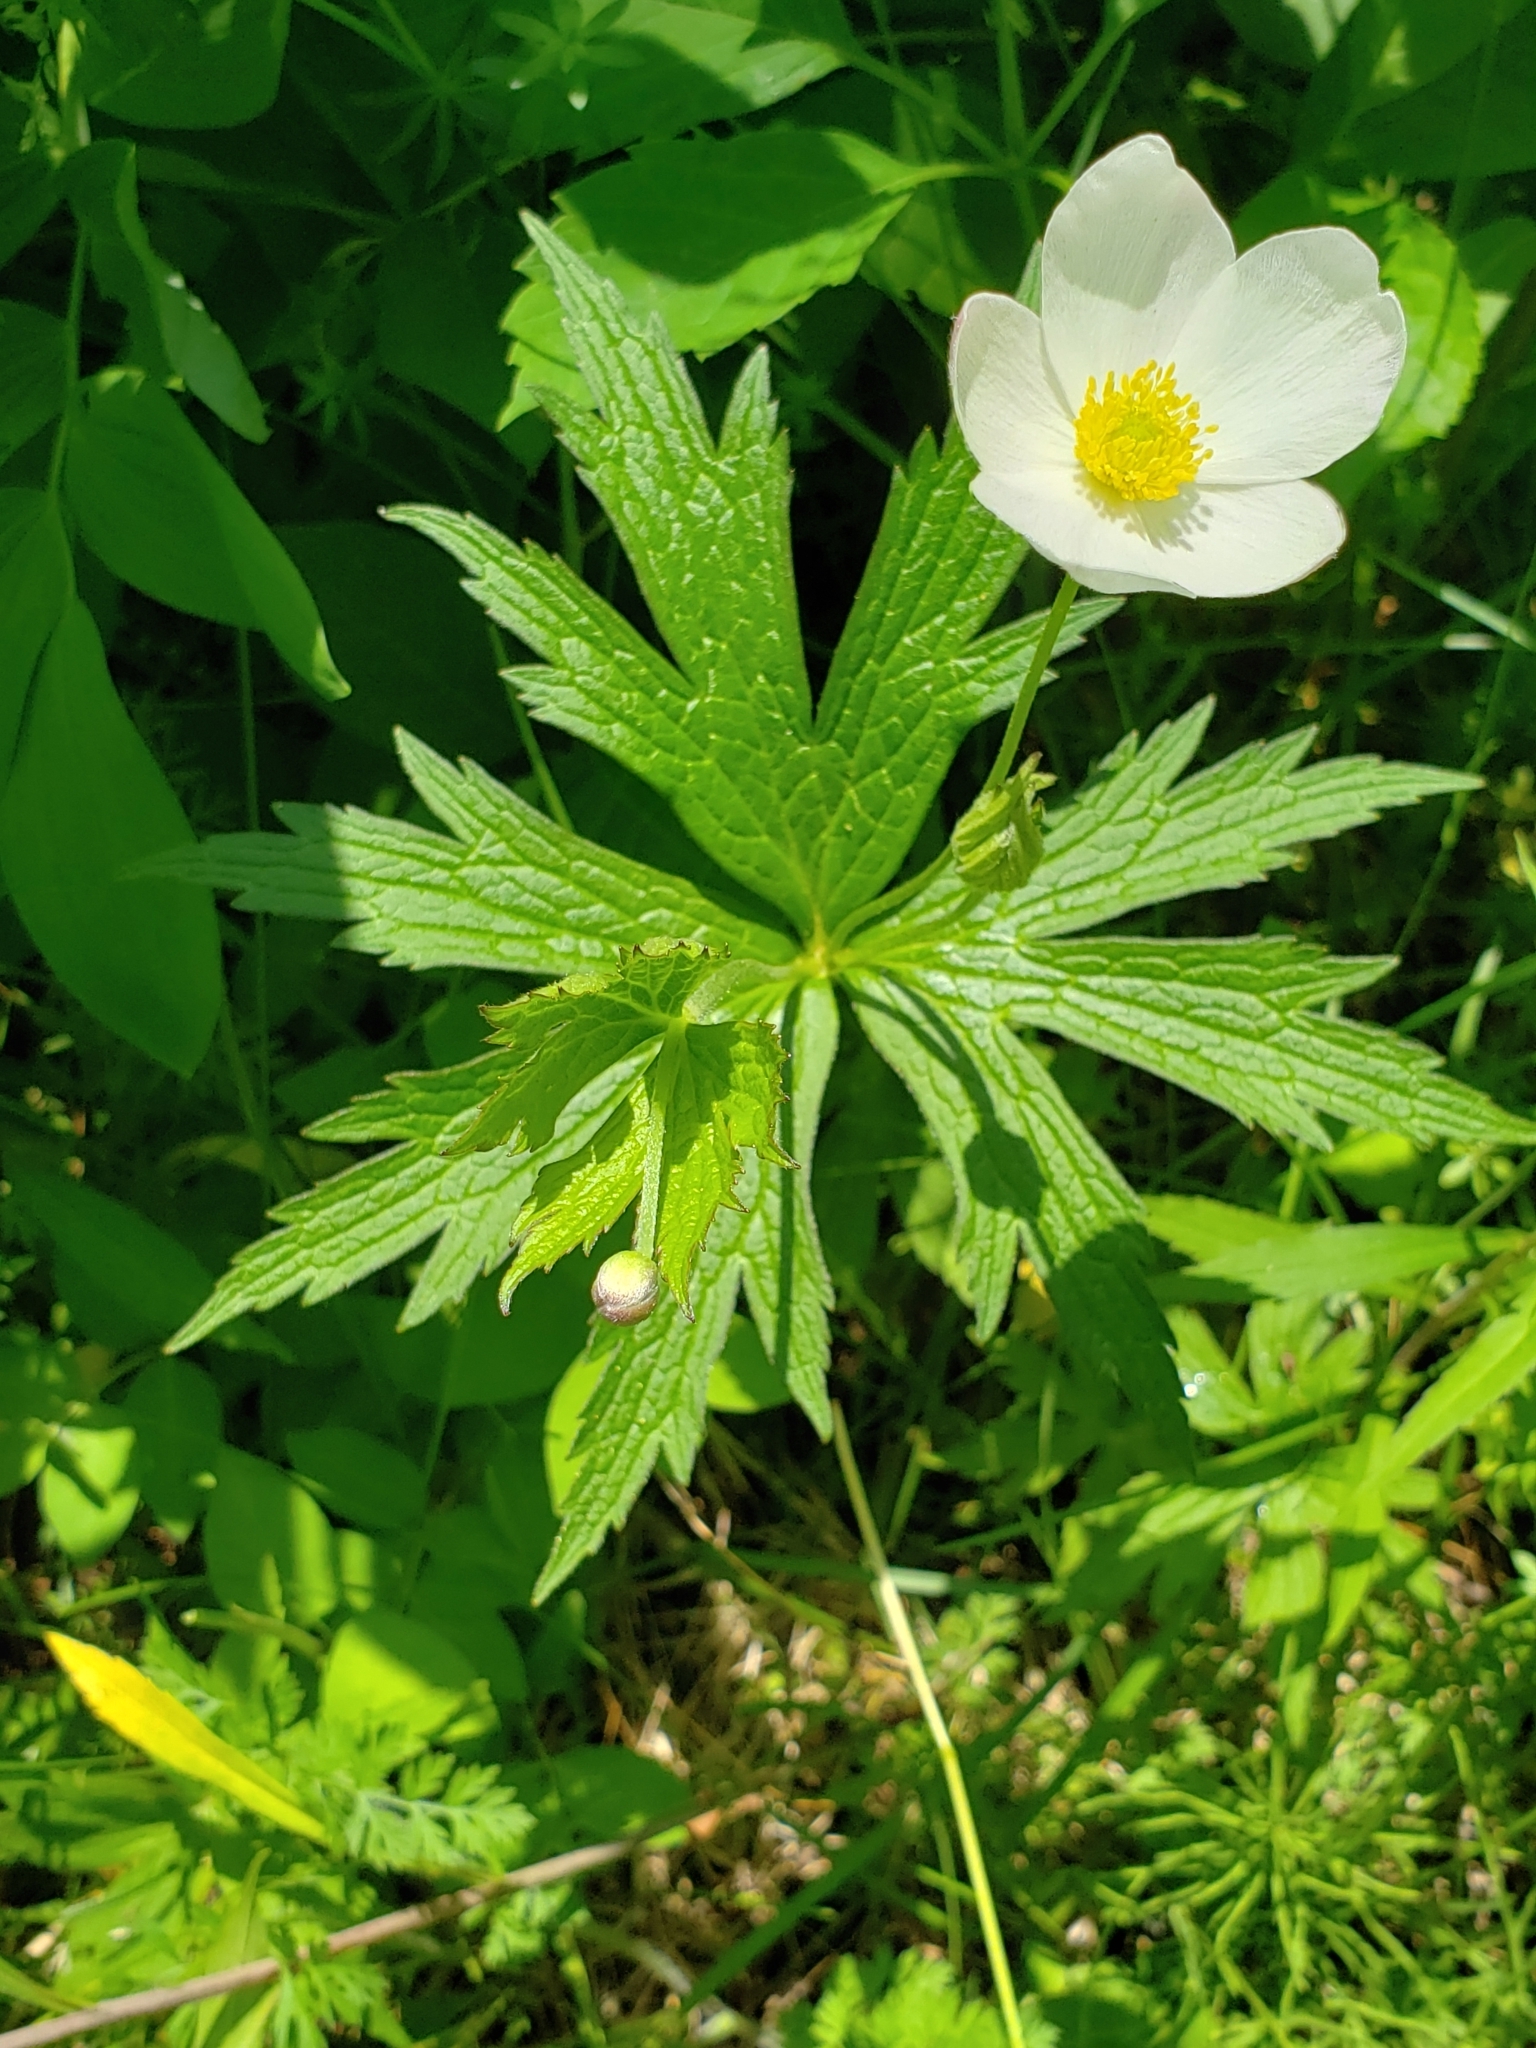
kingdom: Plantae
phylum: Tracheophyta
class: Magnoliopsida
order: Ranunculales
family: Ranunculaceae
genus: Anemonastrum
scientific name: Anemonastrum canadense
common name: Canada anemone
